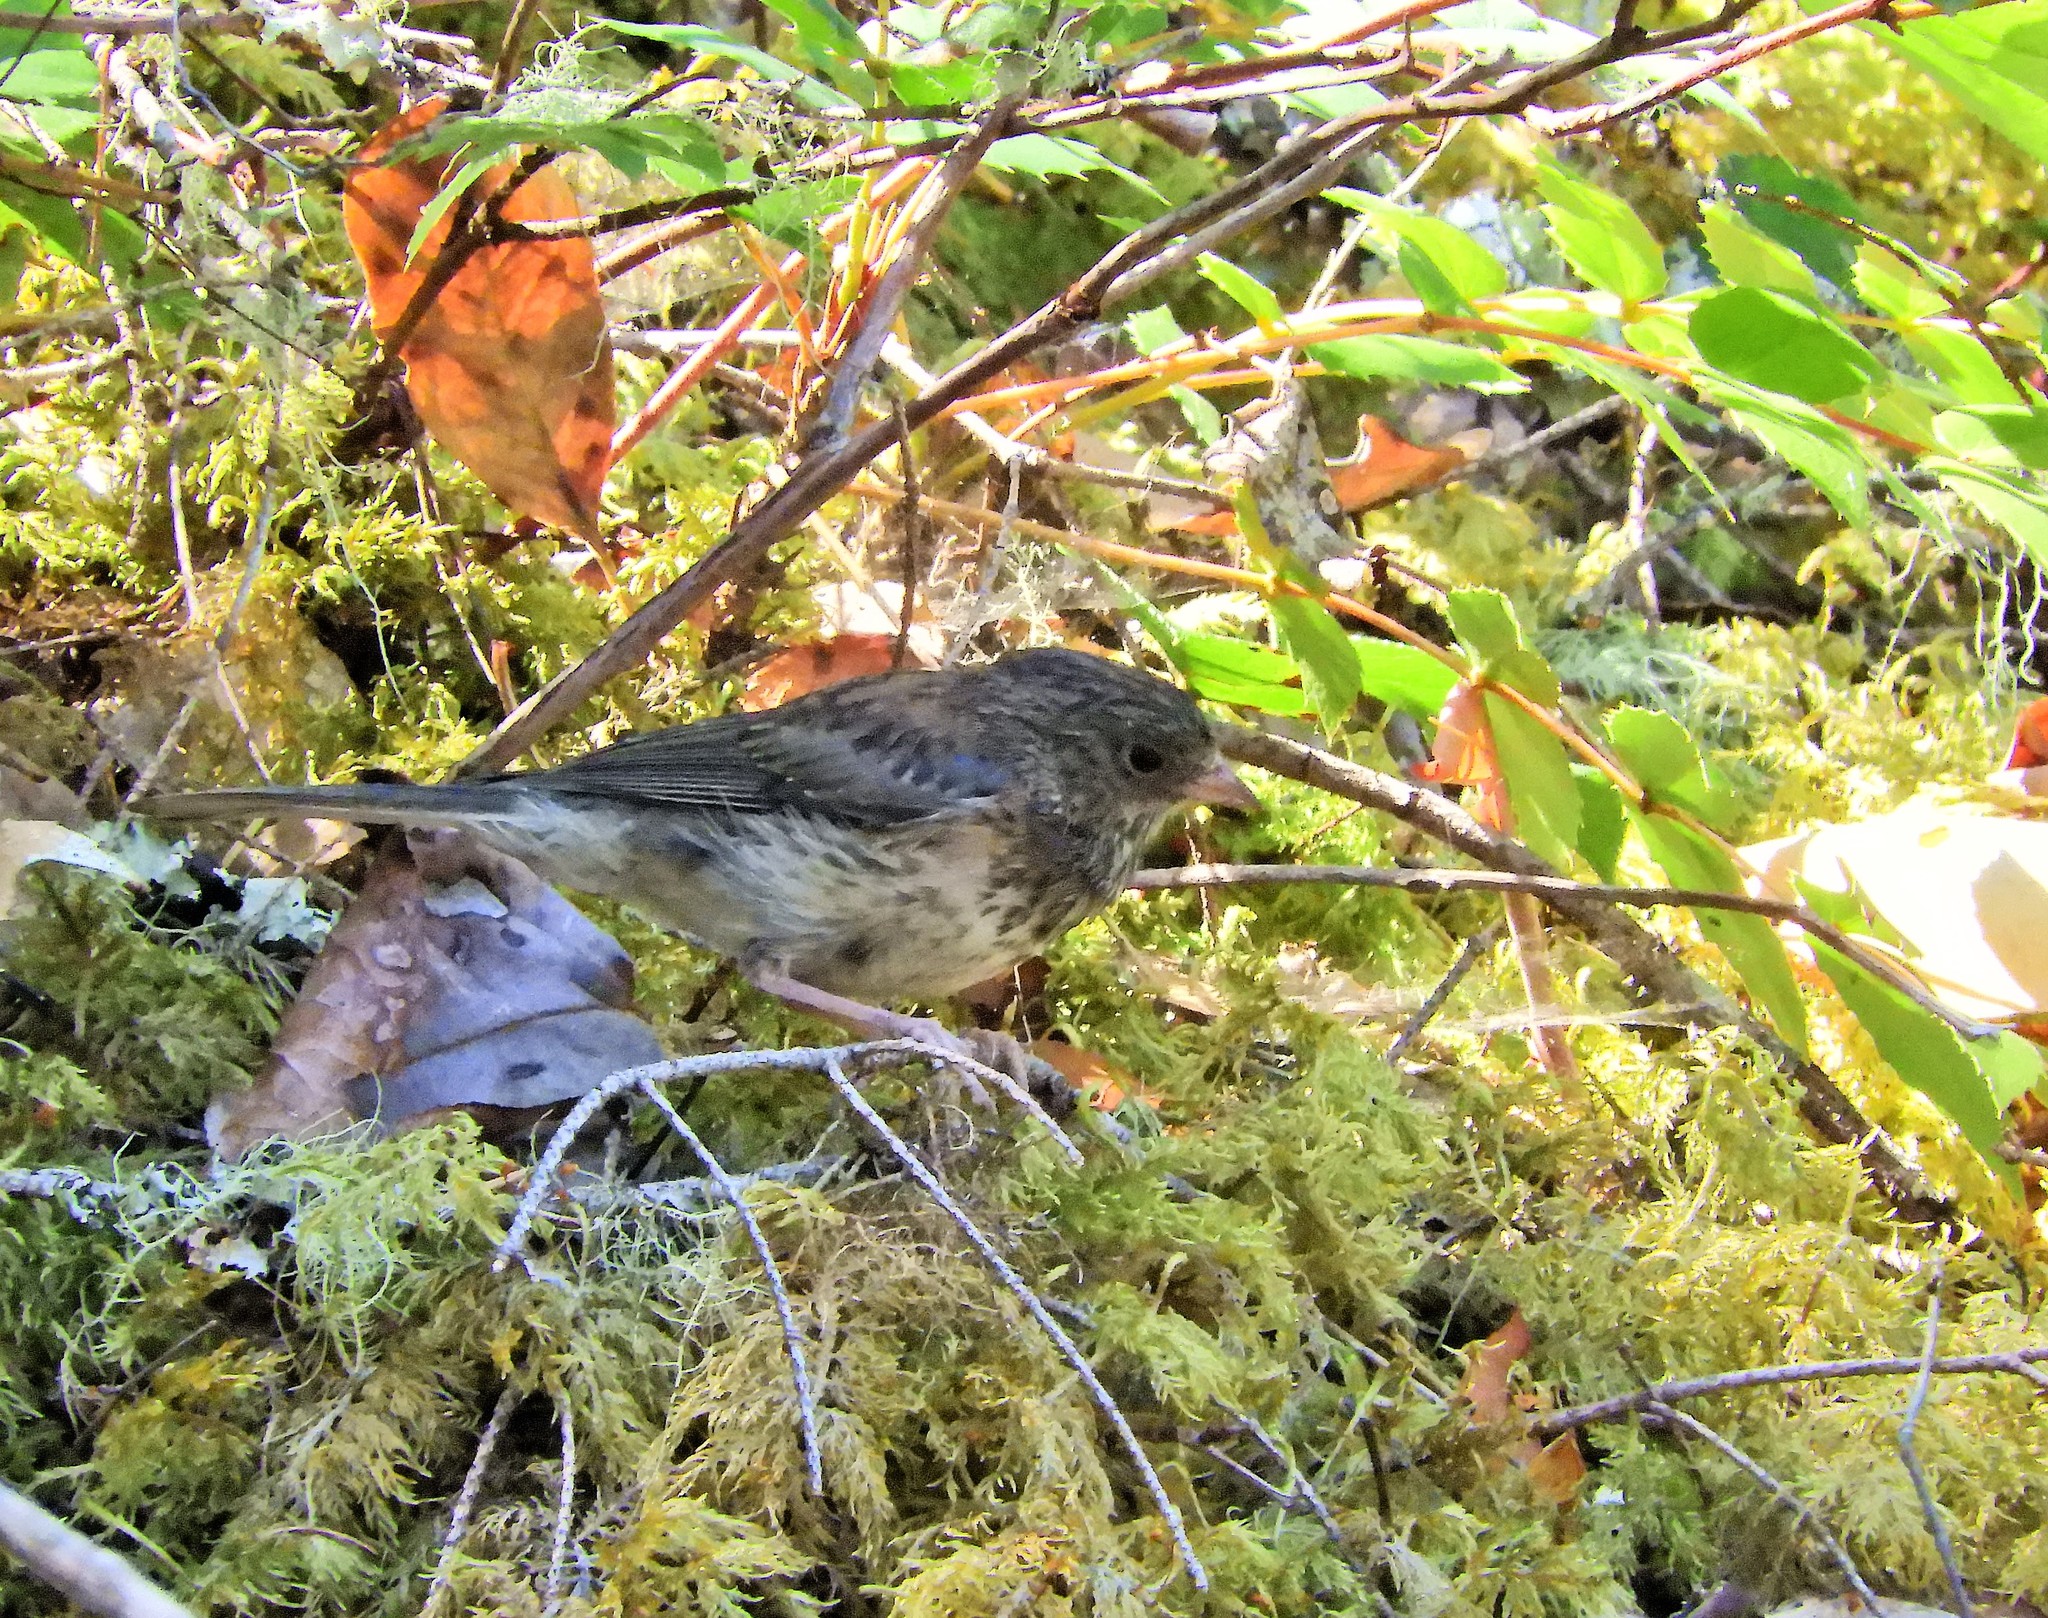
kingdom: Animalia
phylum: Chordata
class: Aves
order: Passeriformes
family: Passerellidae
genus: Junco
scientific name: Junco hyemalis
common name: Dark-eyed junco
